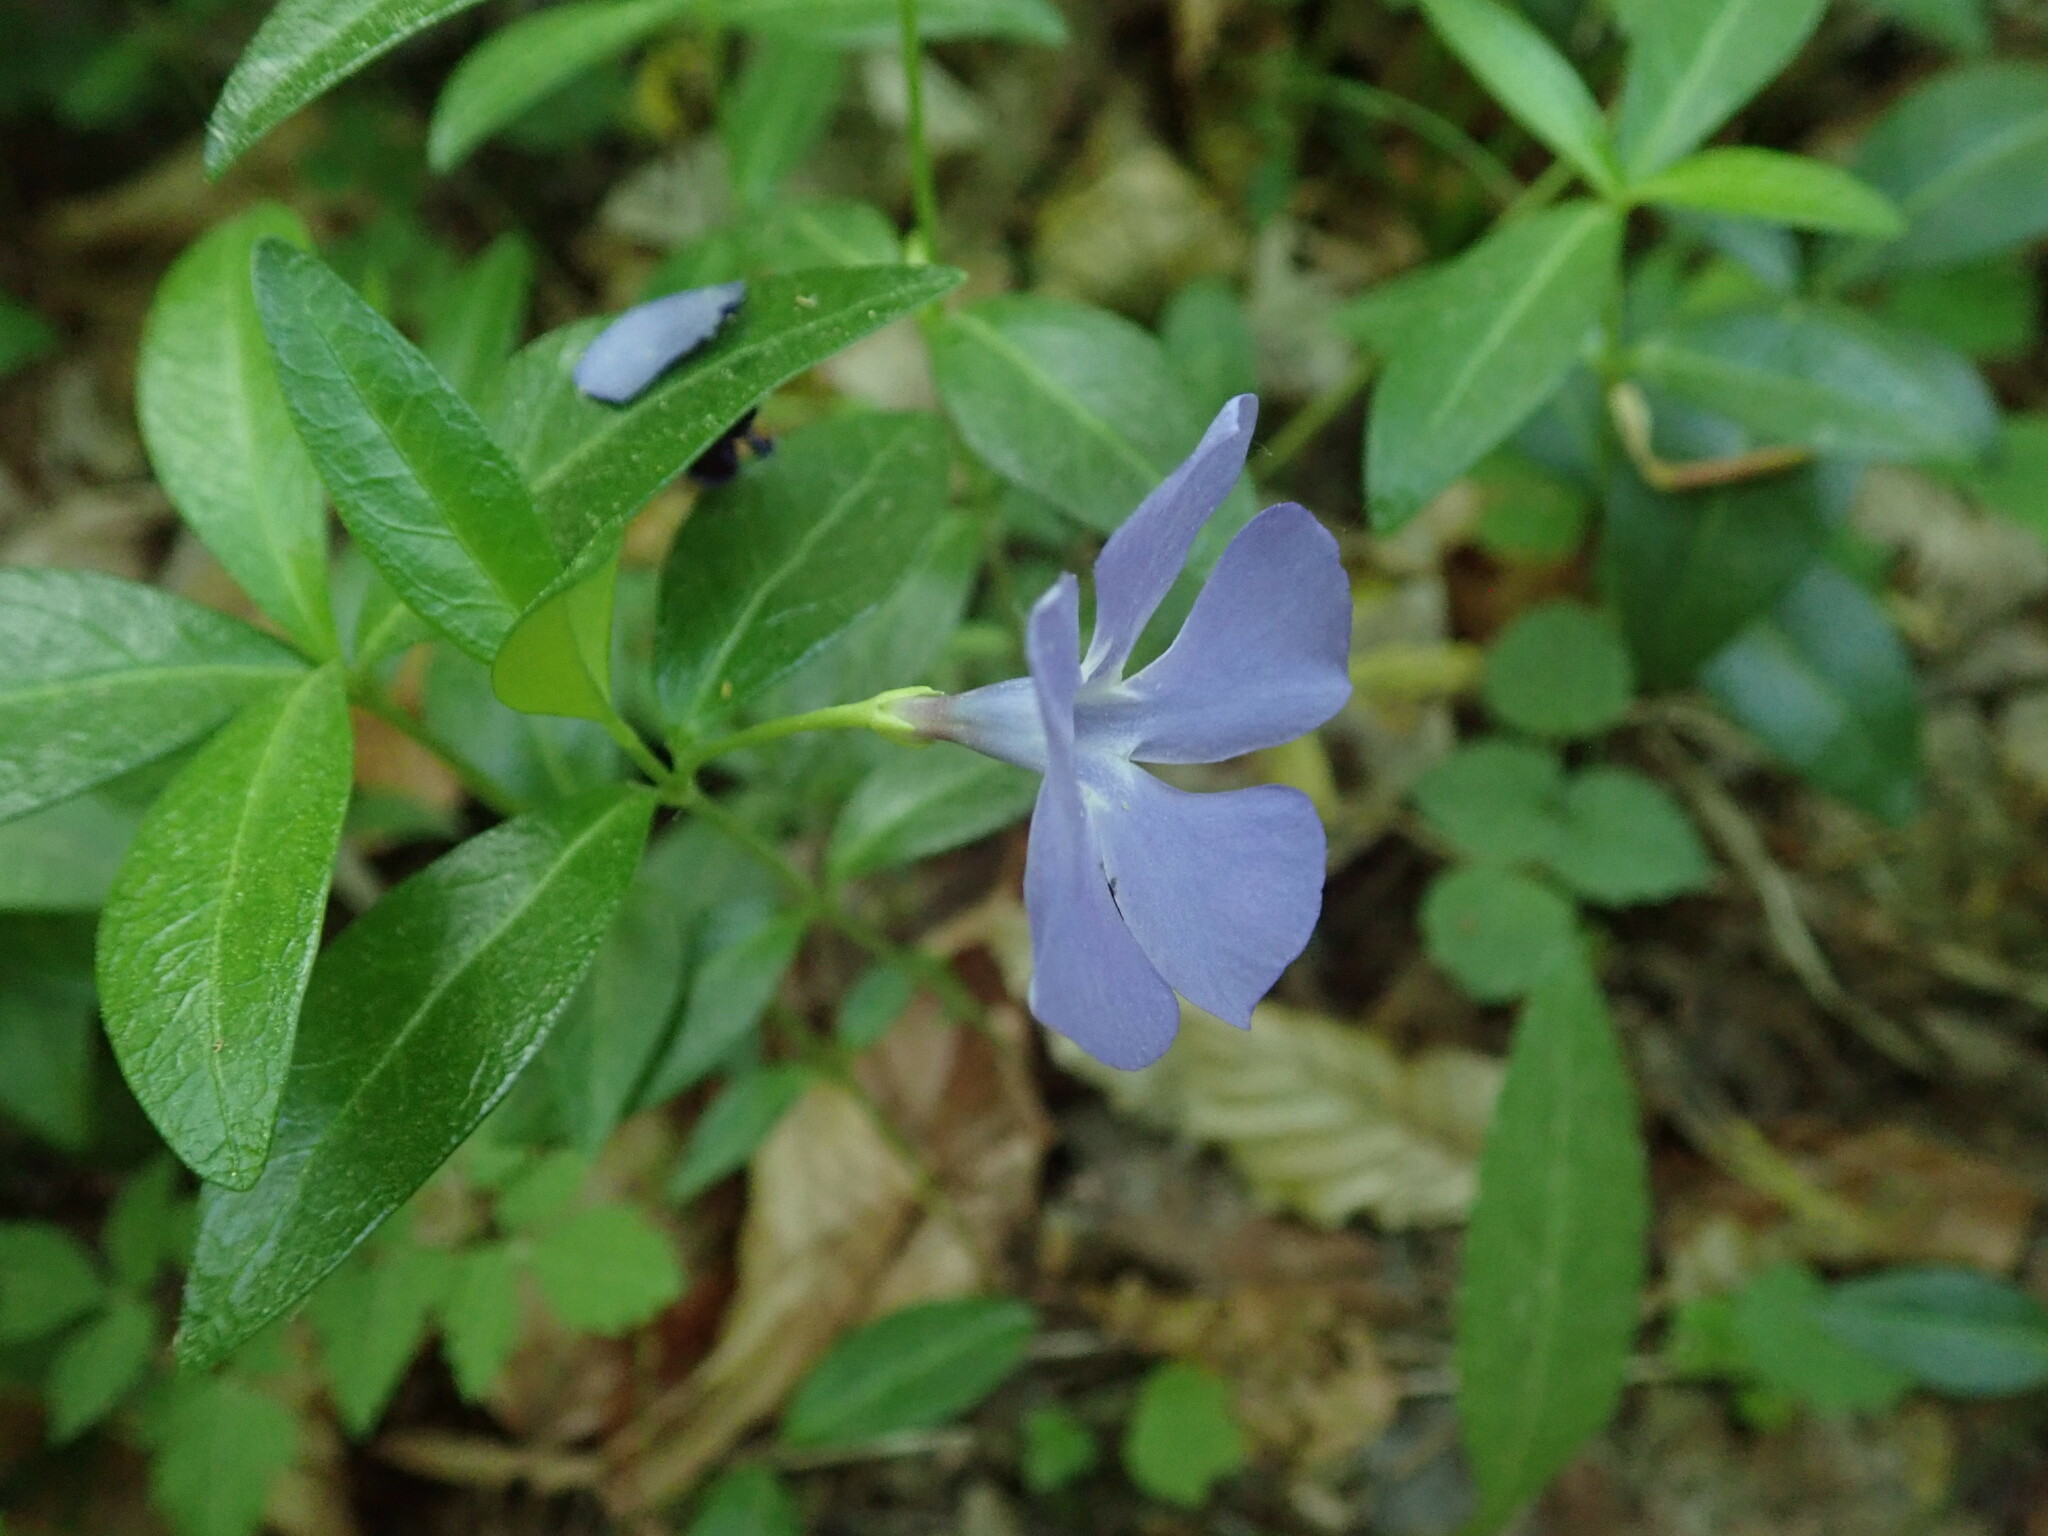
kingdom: Plantae
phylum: Tracheophyta
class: Magnoliopsida
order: Gentianales
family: Apocynaceae
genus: Vinca
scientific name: Vinca minor
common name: Lesser periwinkle
